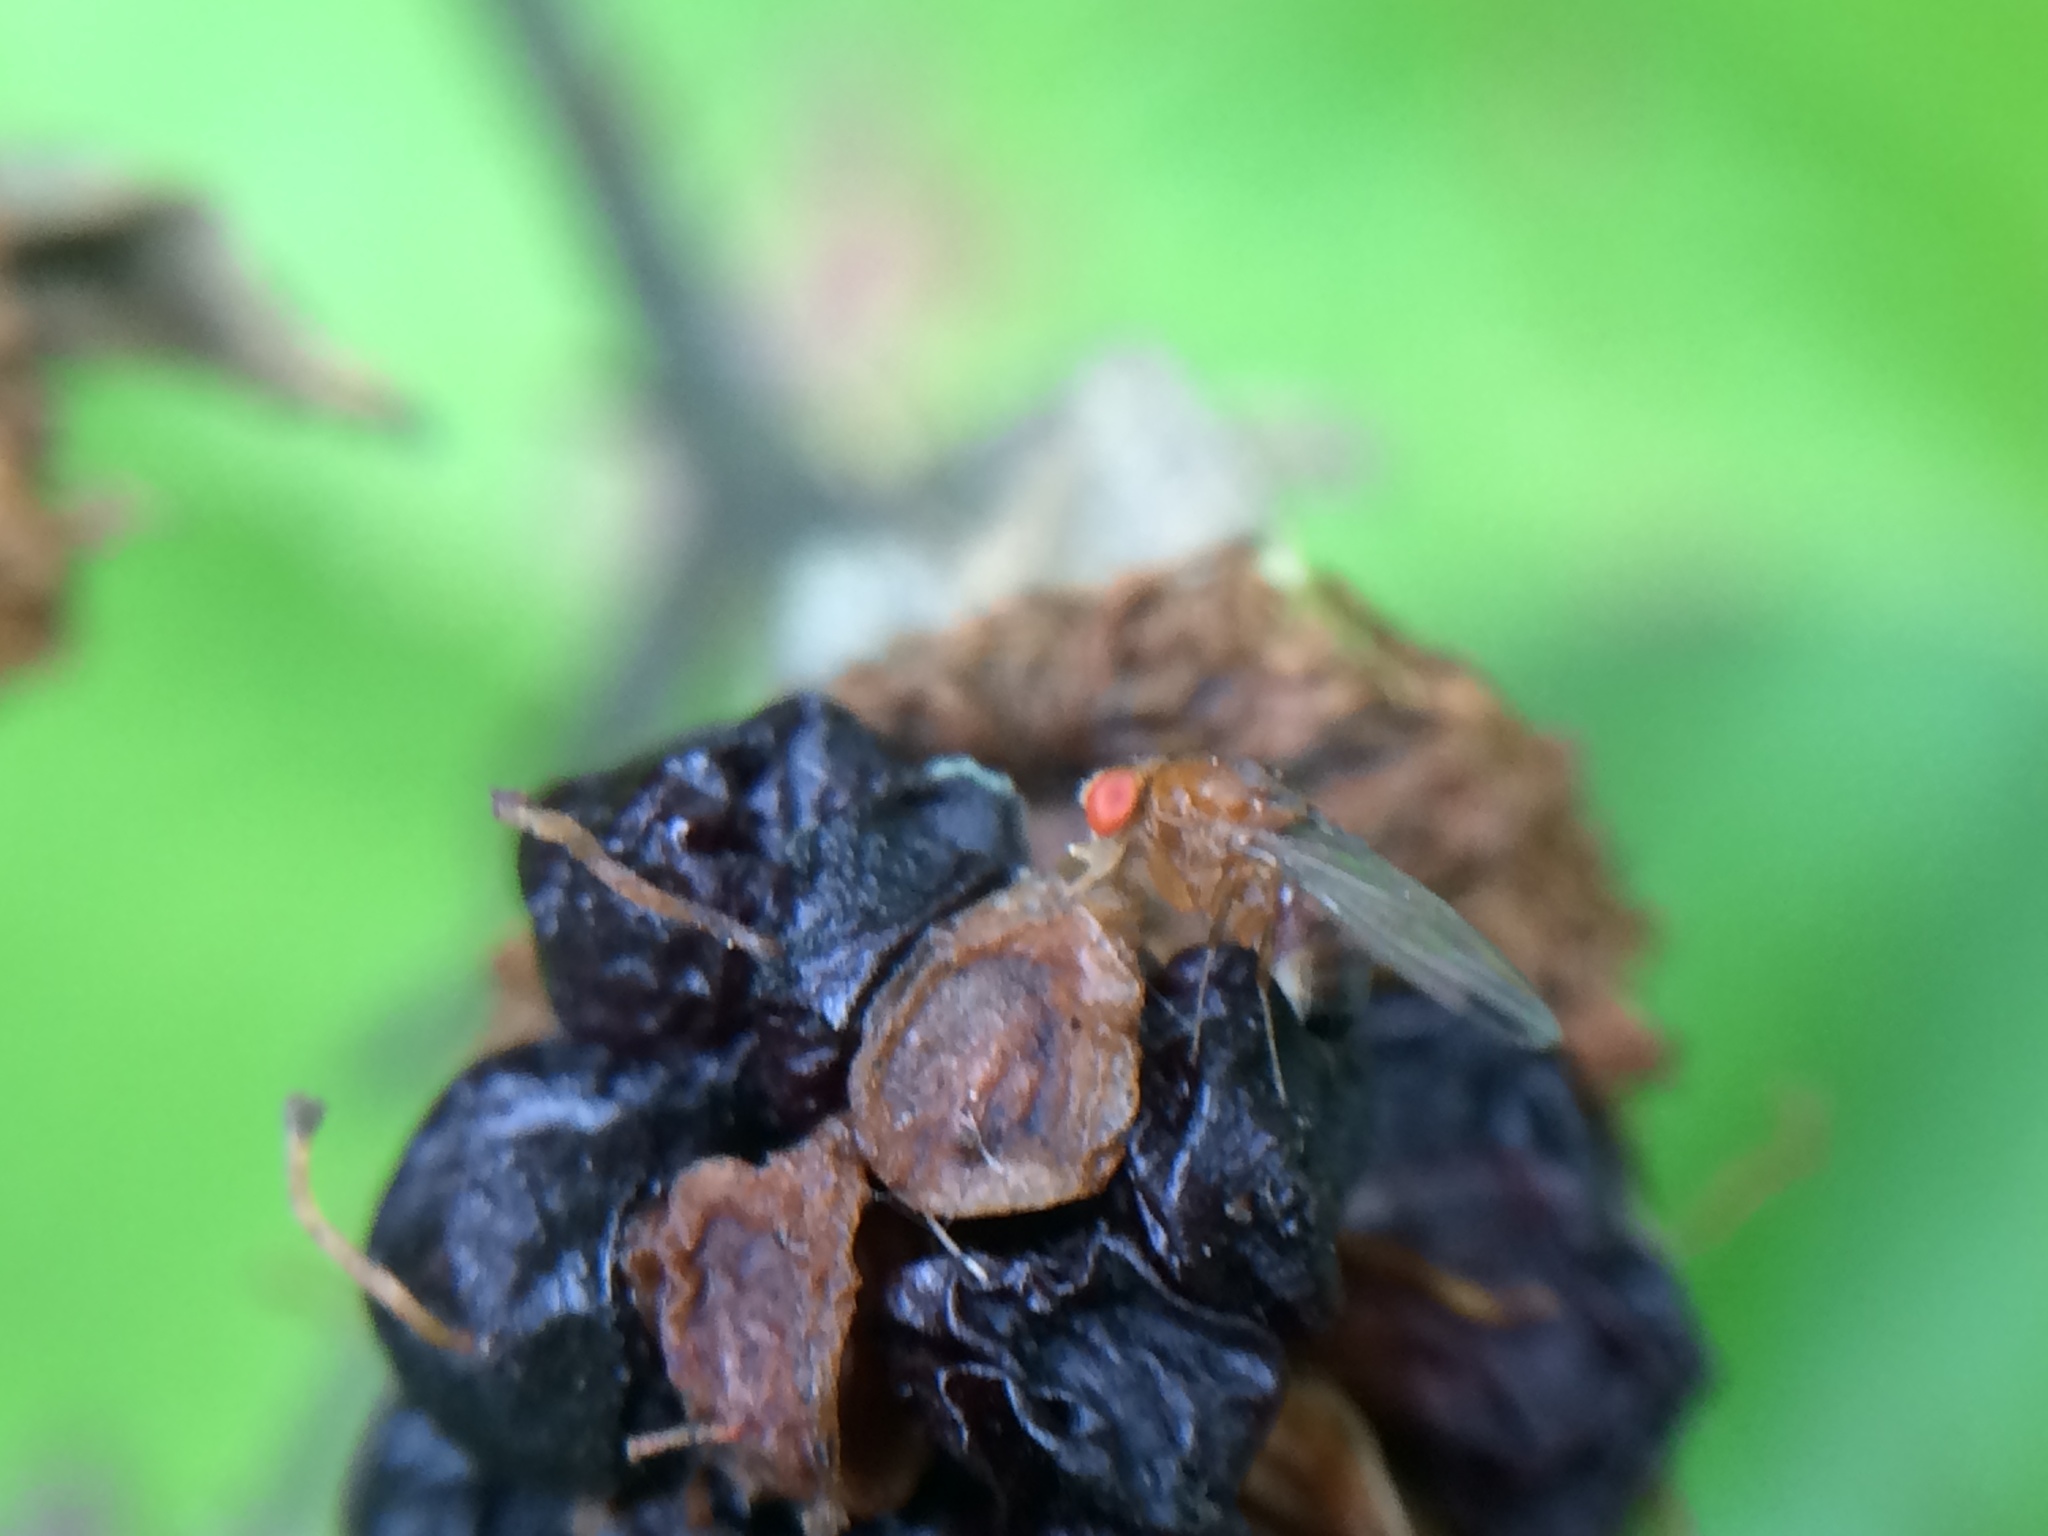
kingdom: Animalia
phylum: Arthropoda
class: Insecta
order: Diptera
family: Drosophilidae
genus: Drosophila
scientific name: Drosophila suzukii
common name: Spotted-wing drosophila
